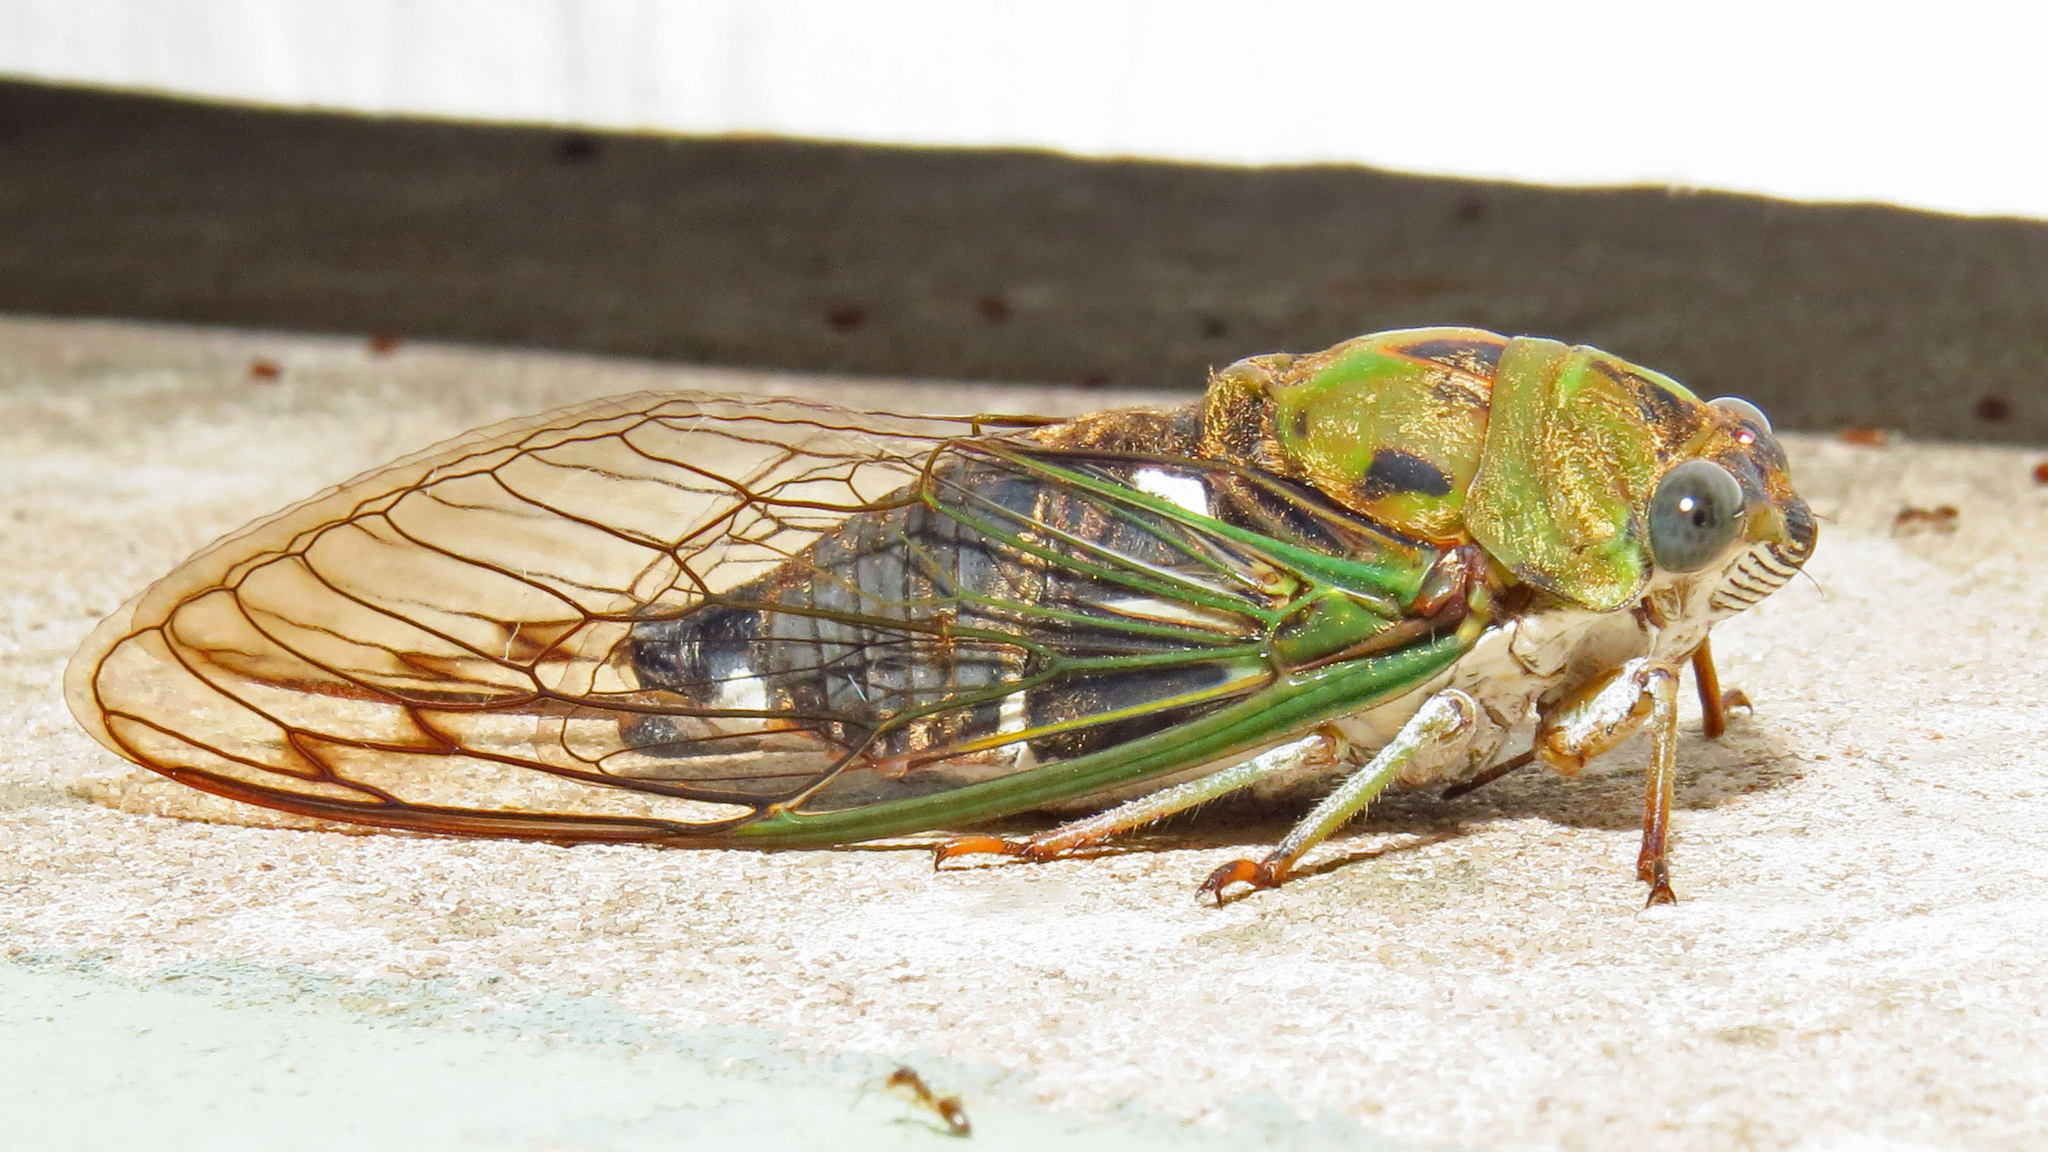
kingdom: Animalia
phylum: Arthropoda
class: Insecta
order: Hemiptera
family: Cicadidae
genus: Neotibicen
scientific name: Neotibicen pruinosus
